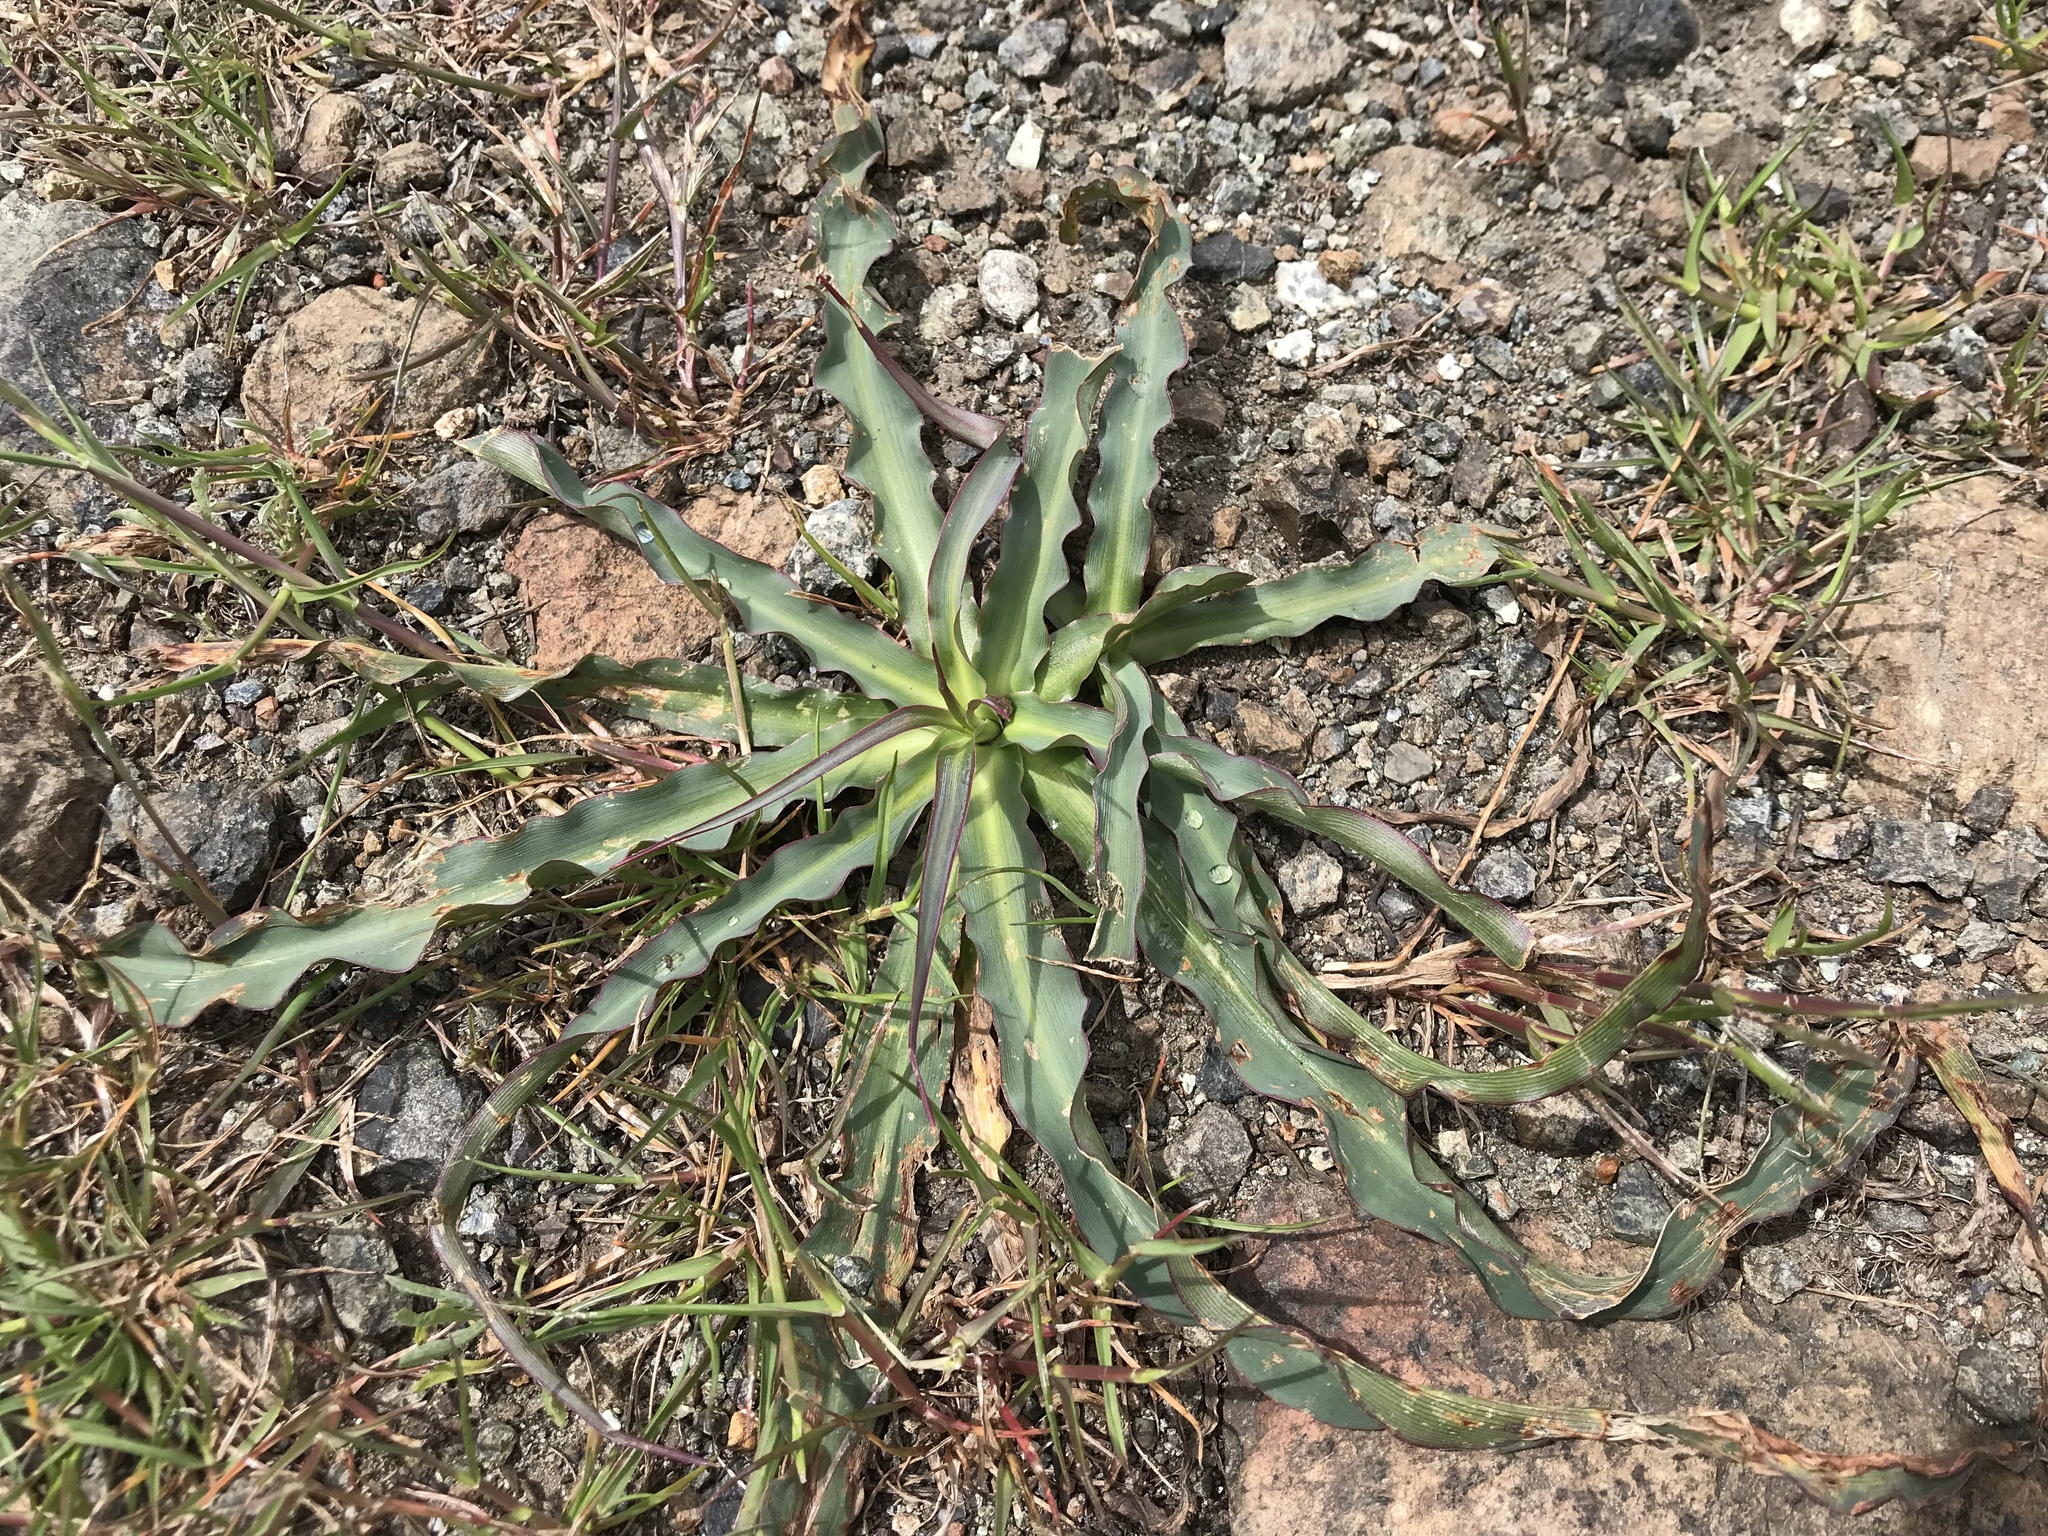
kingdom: Plantae
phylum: Tracheophyta
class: Liliopsida
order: Asparagales
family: Asparagaceae
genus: Chlorogalum
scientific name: Chlorogalum pomeridianum
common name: Amole
